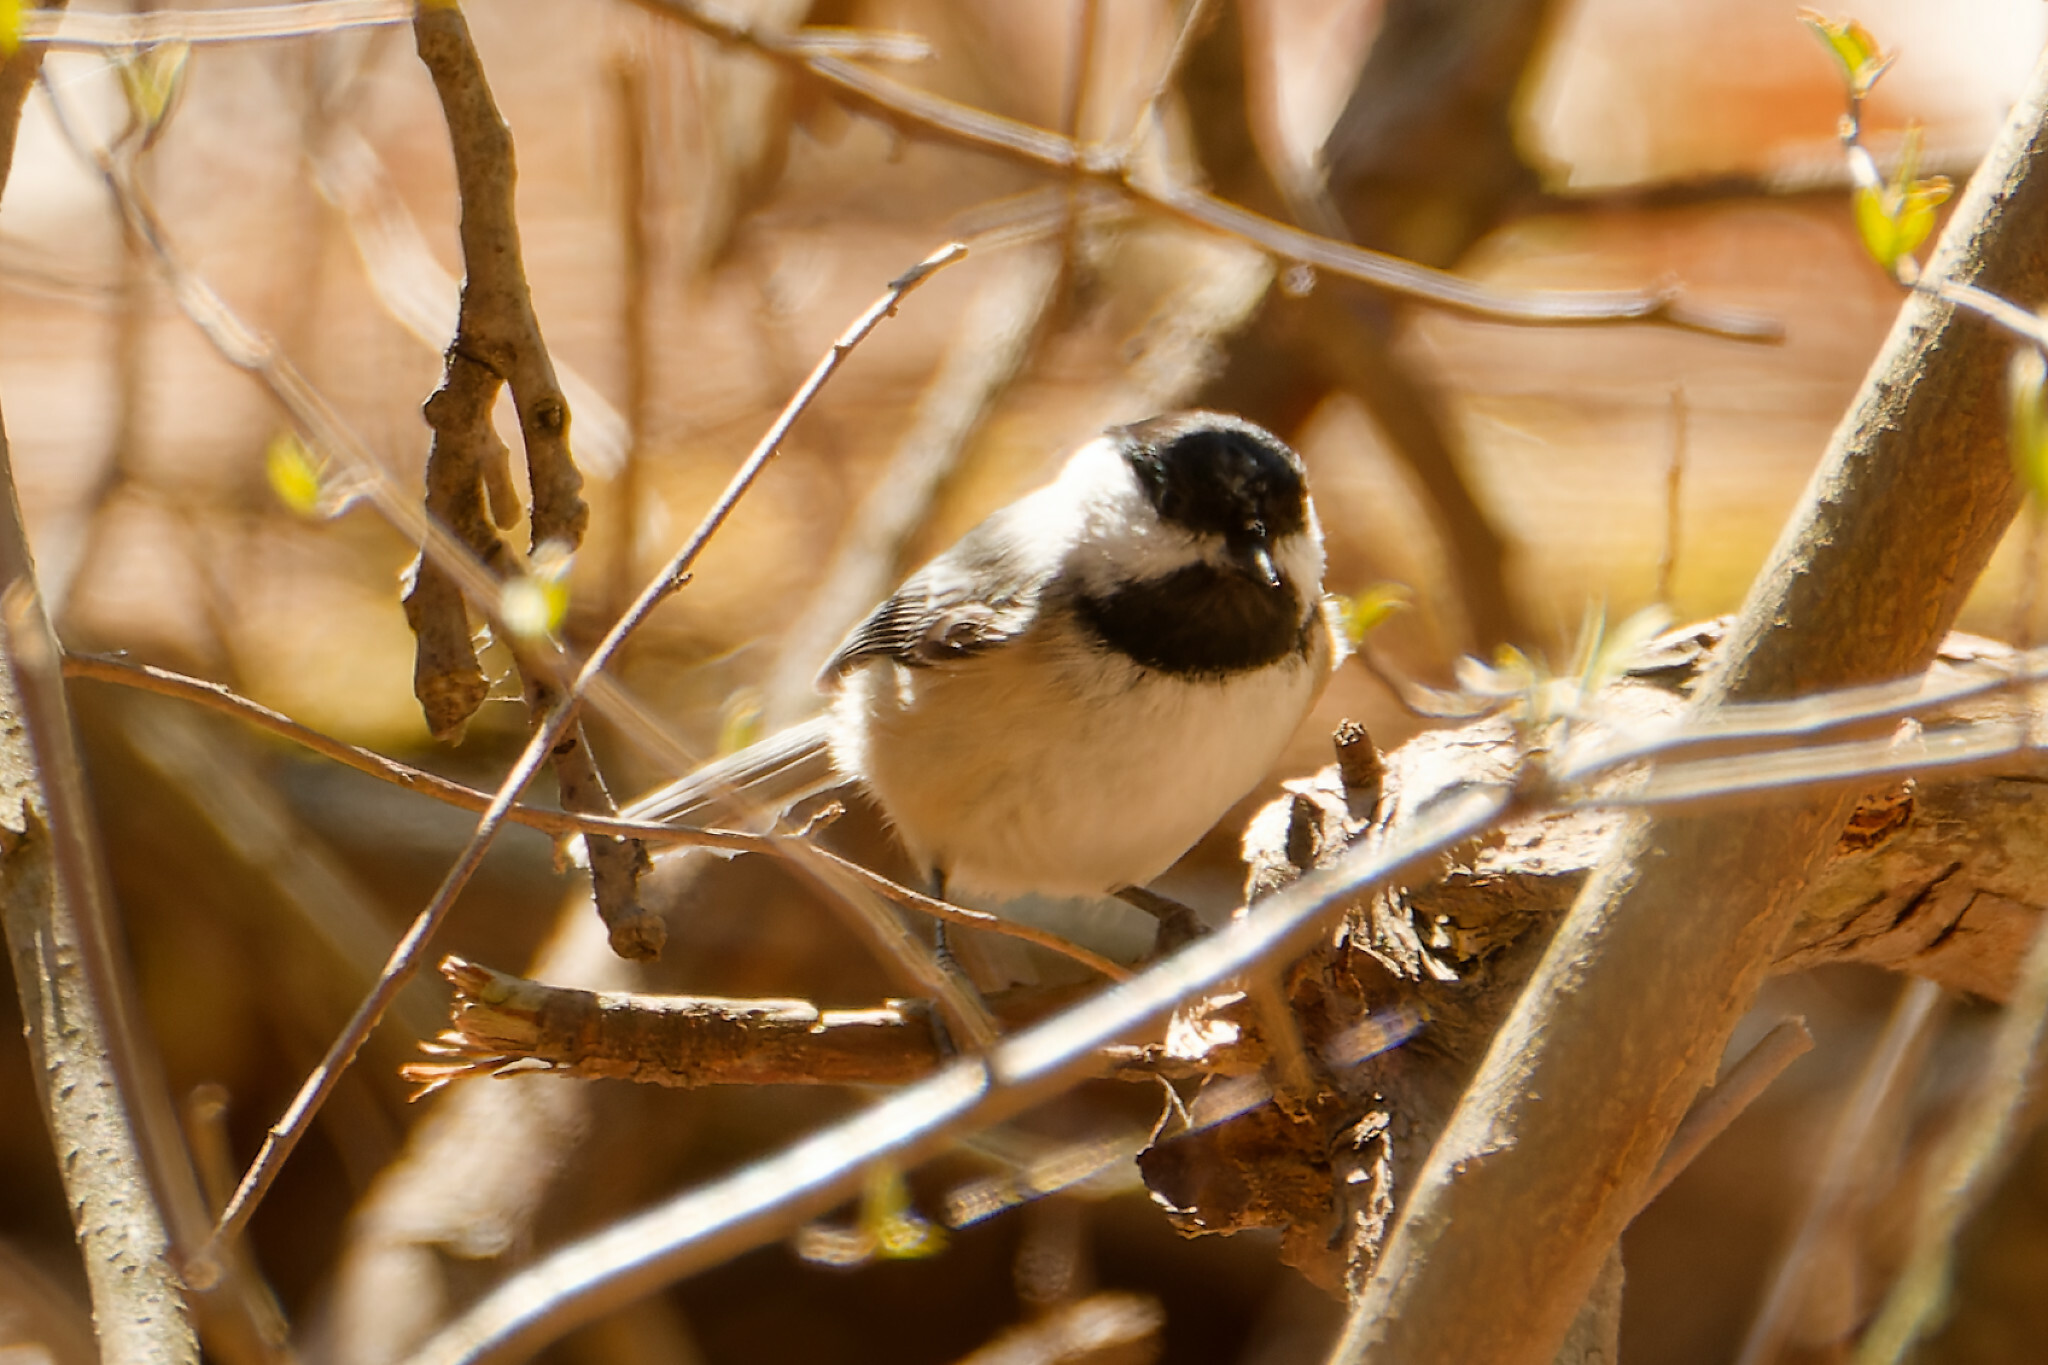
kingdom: Animalia
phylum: Chordata
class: Aves
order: Passeriformes
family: Paridae
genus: Poecile
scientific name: Poecile atricapillus
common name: Black-capped chickadee
